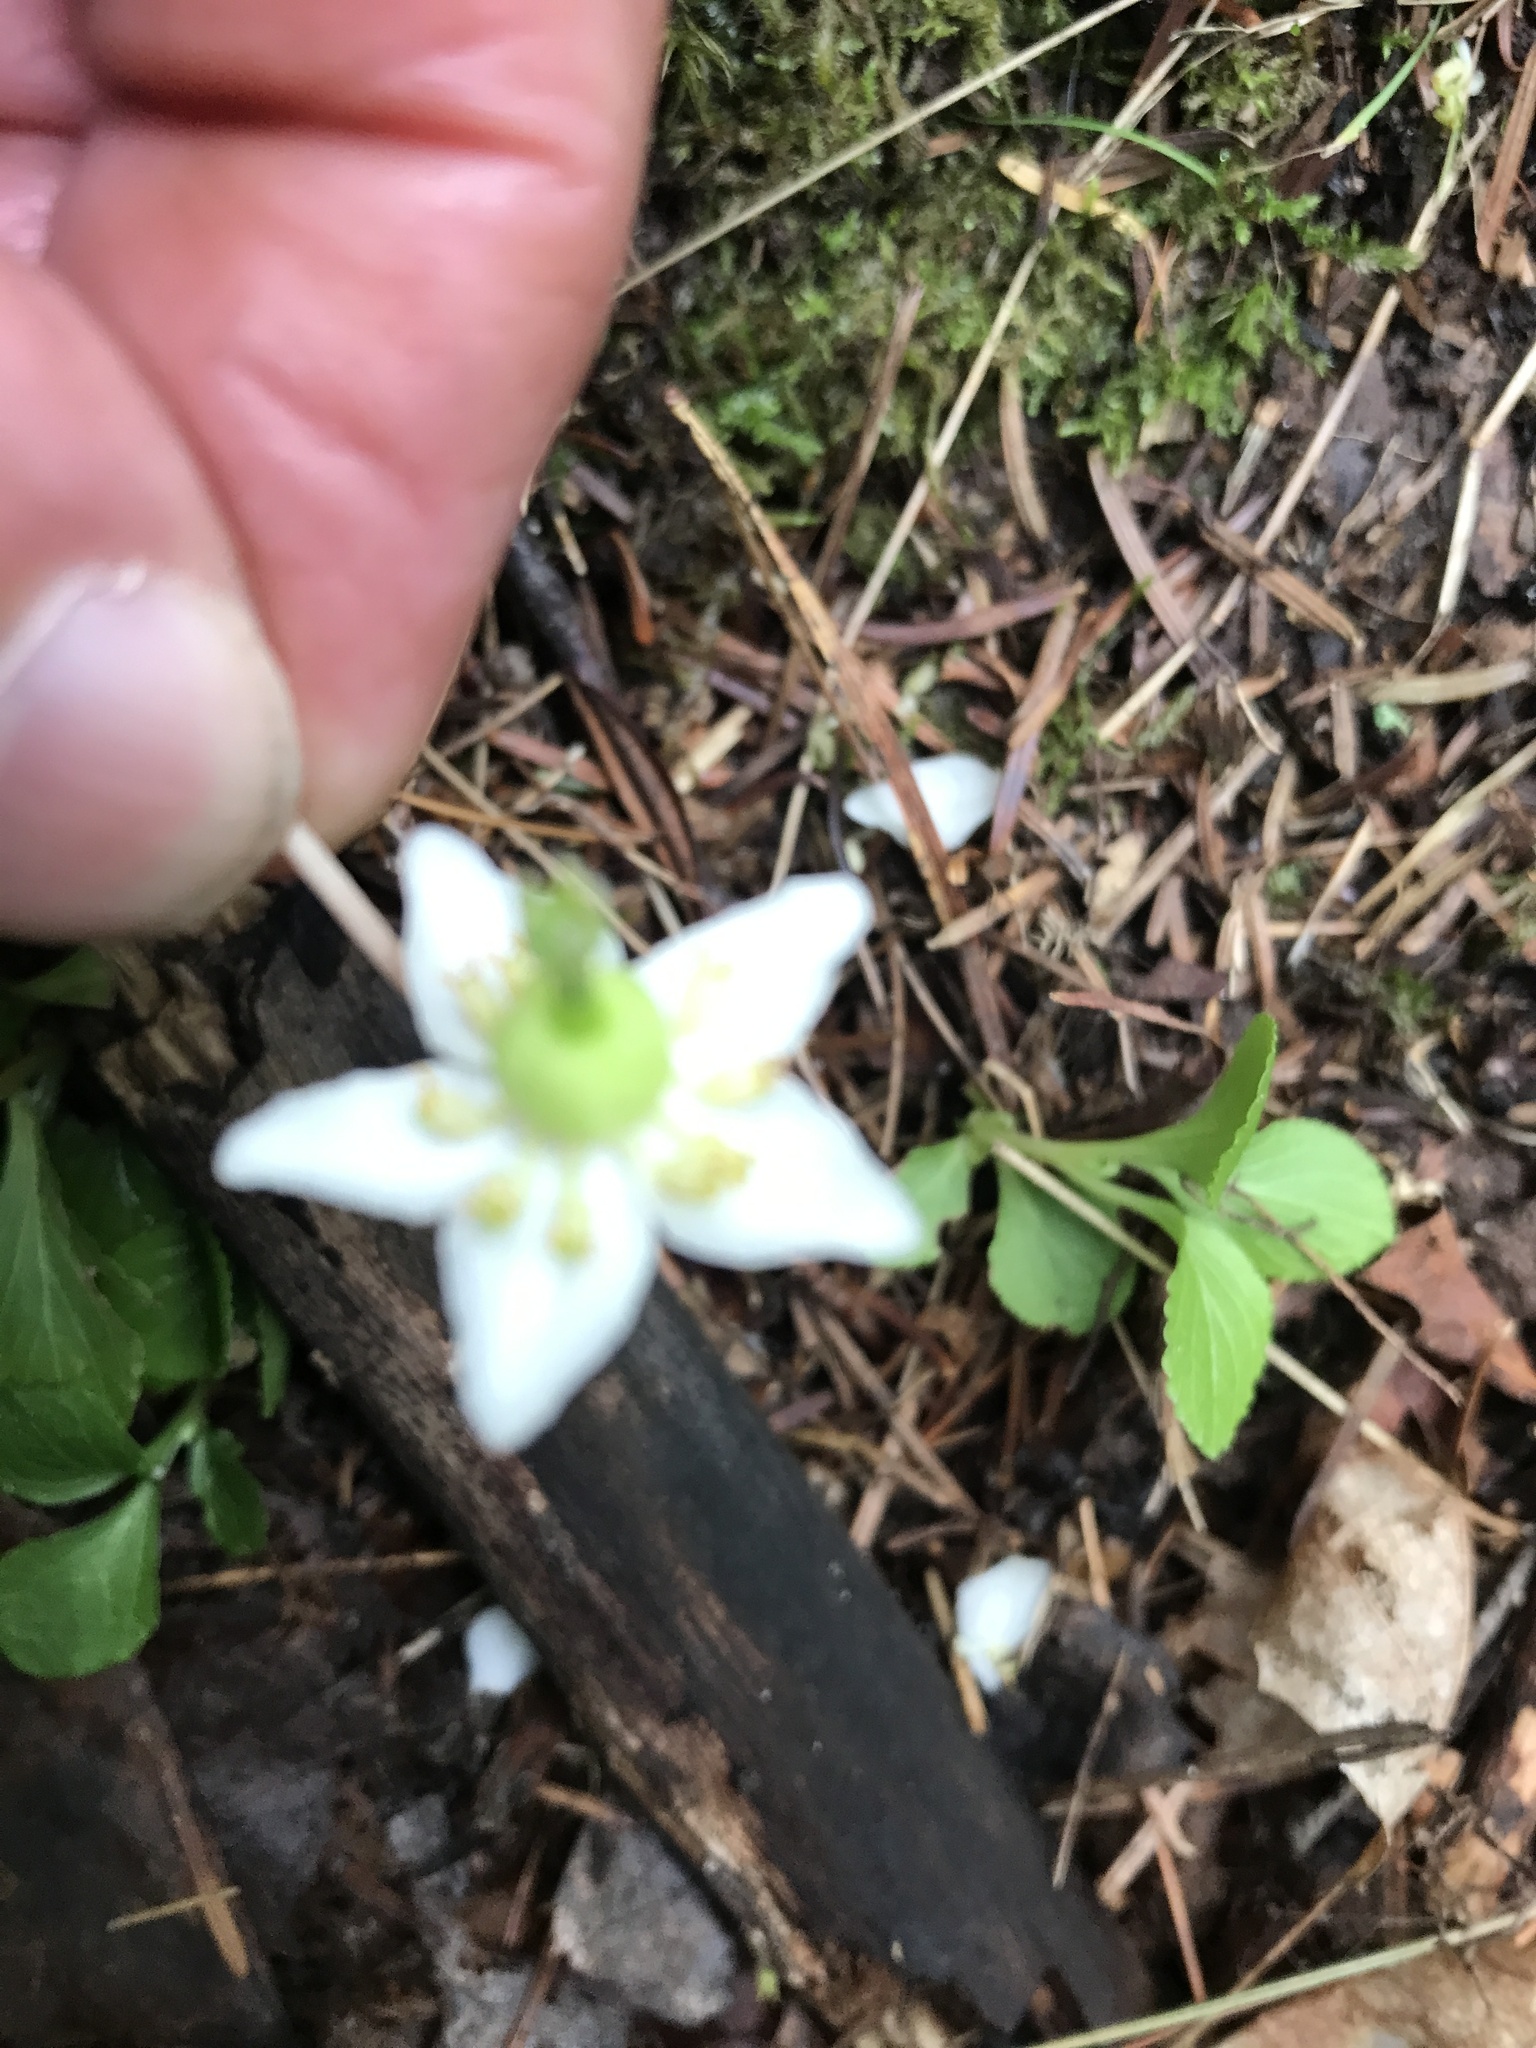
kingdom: Plantae
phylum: Tracheophyta
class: Magnoliopsida
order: Ericales
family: Ericaceae
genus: Moneses
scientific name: Moneses uniflora
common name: One-flowered wintergreen
